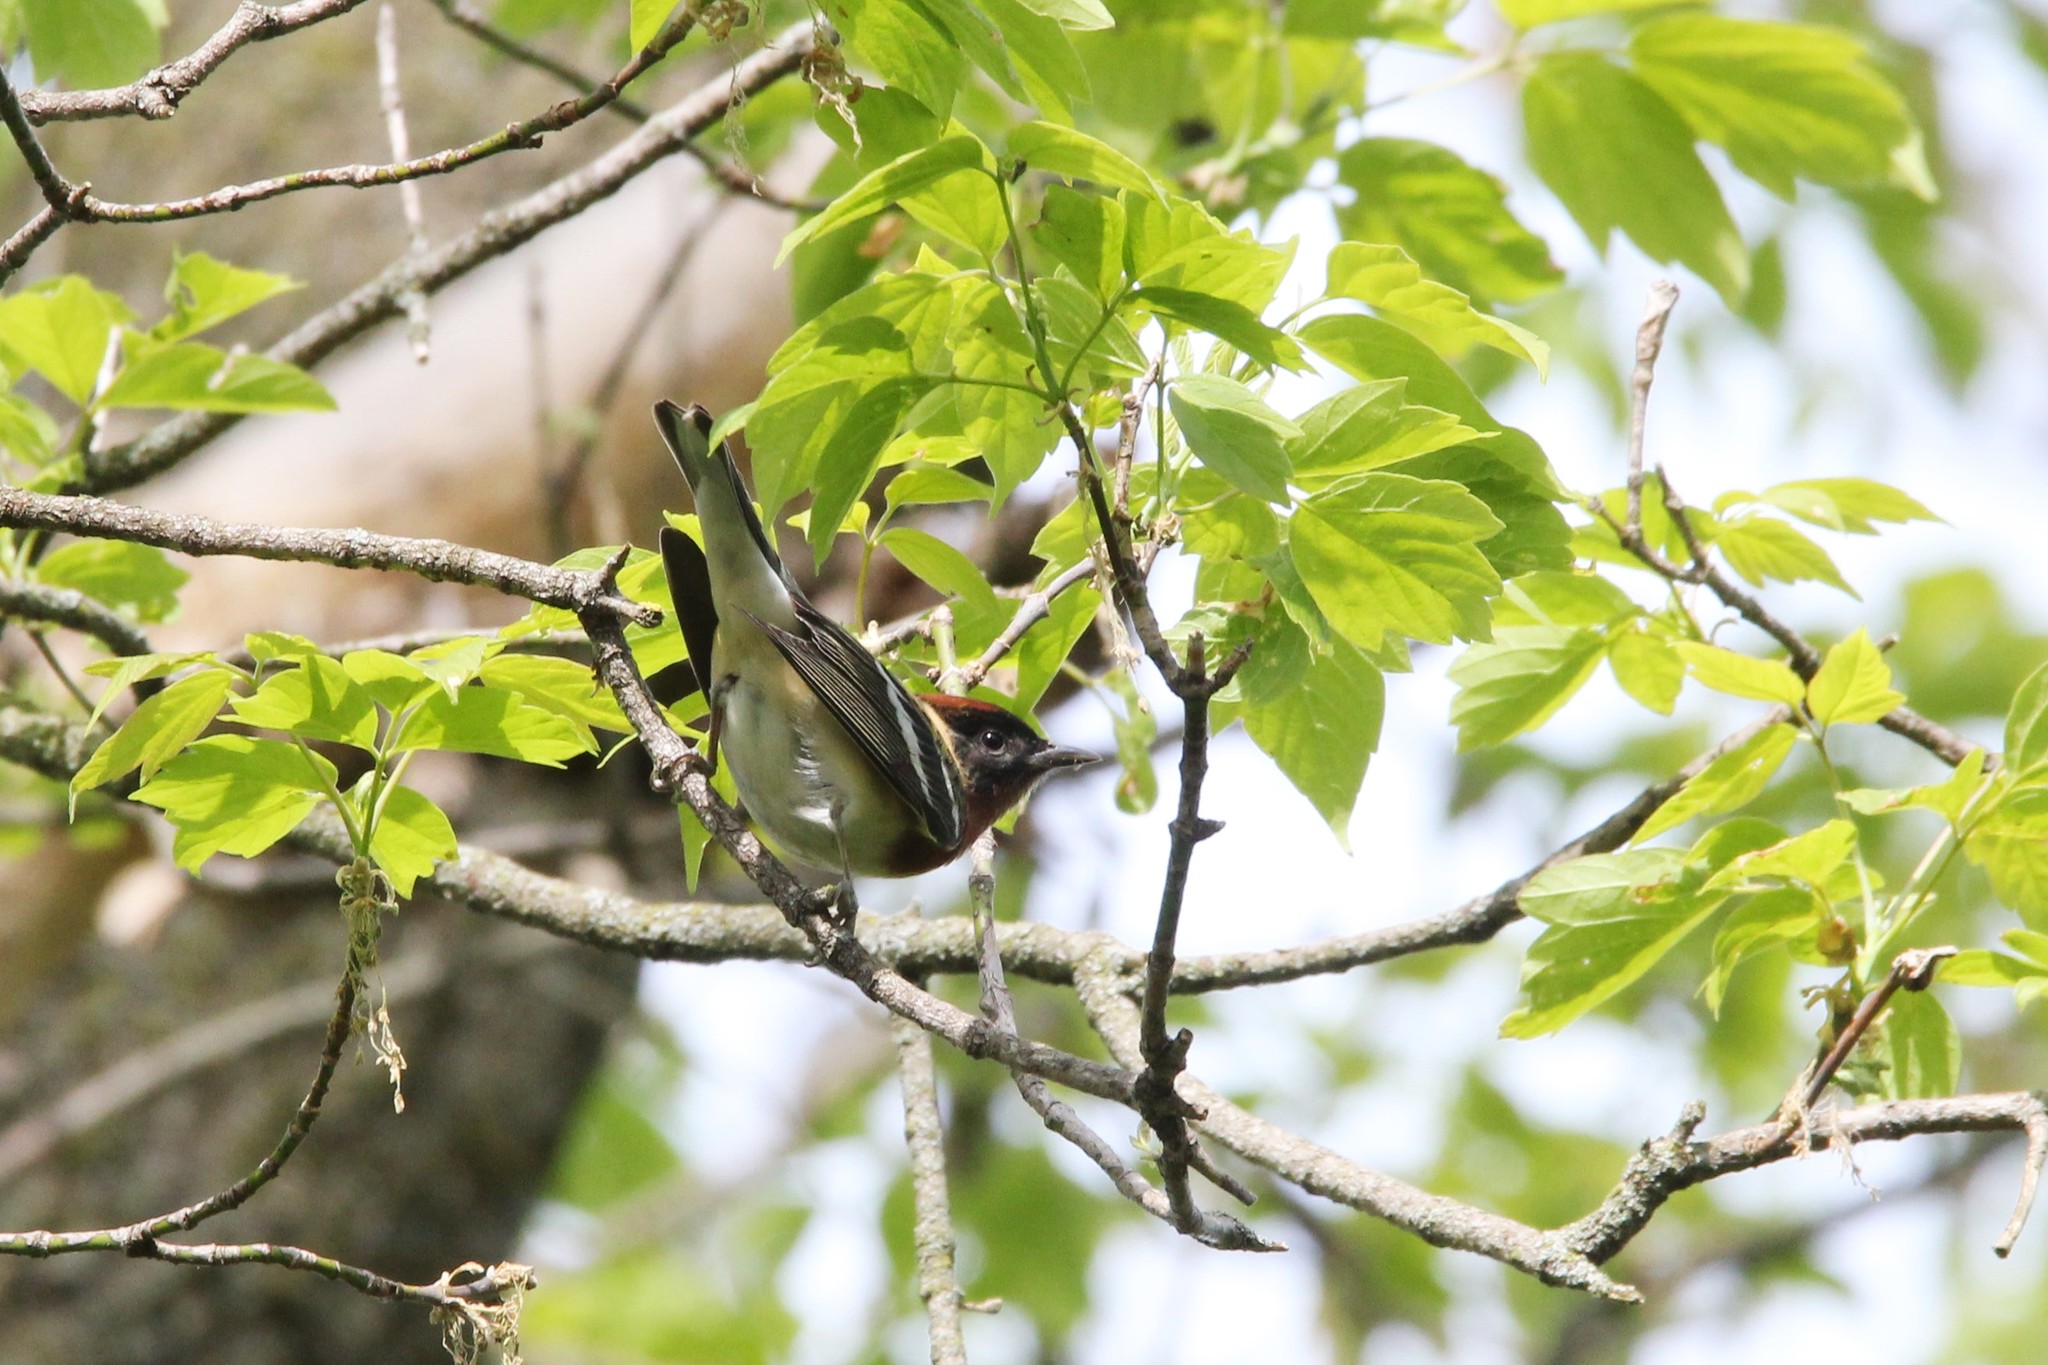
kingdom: Animalia
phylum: Chordata
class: Aves
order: Passeriformes
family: Parulidae
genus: Setophaga
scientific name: Setophaga castanea
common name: Bay-breasted warbler
